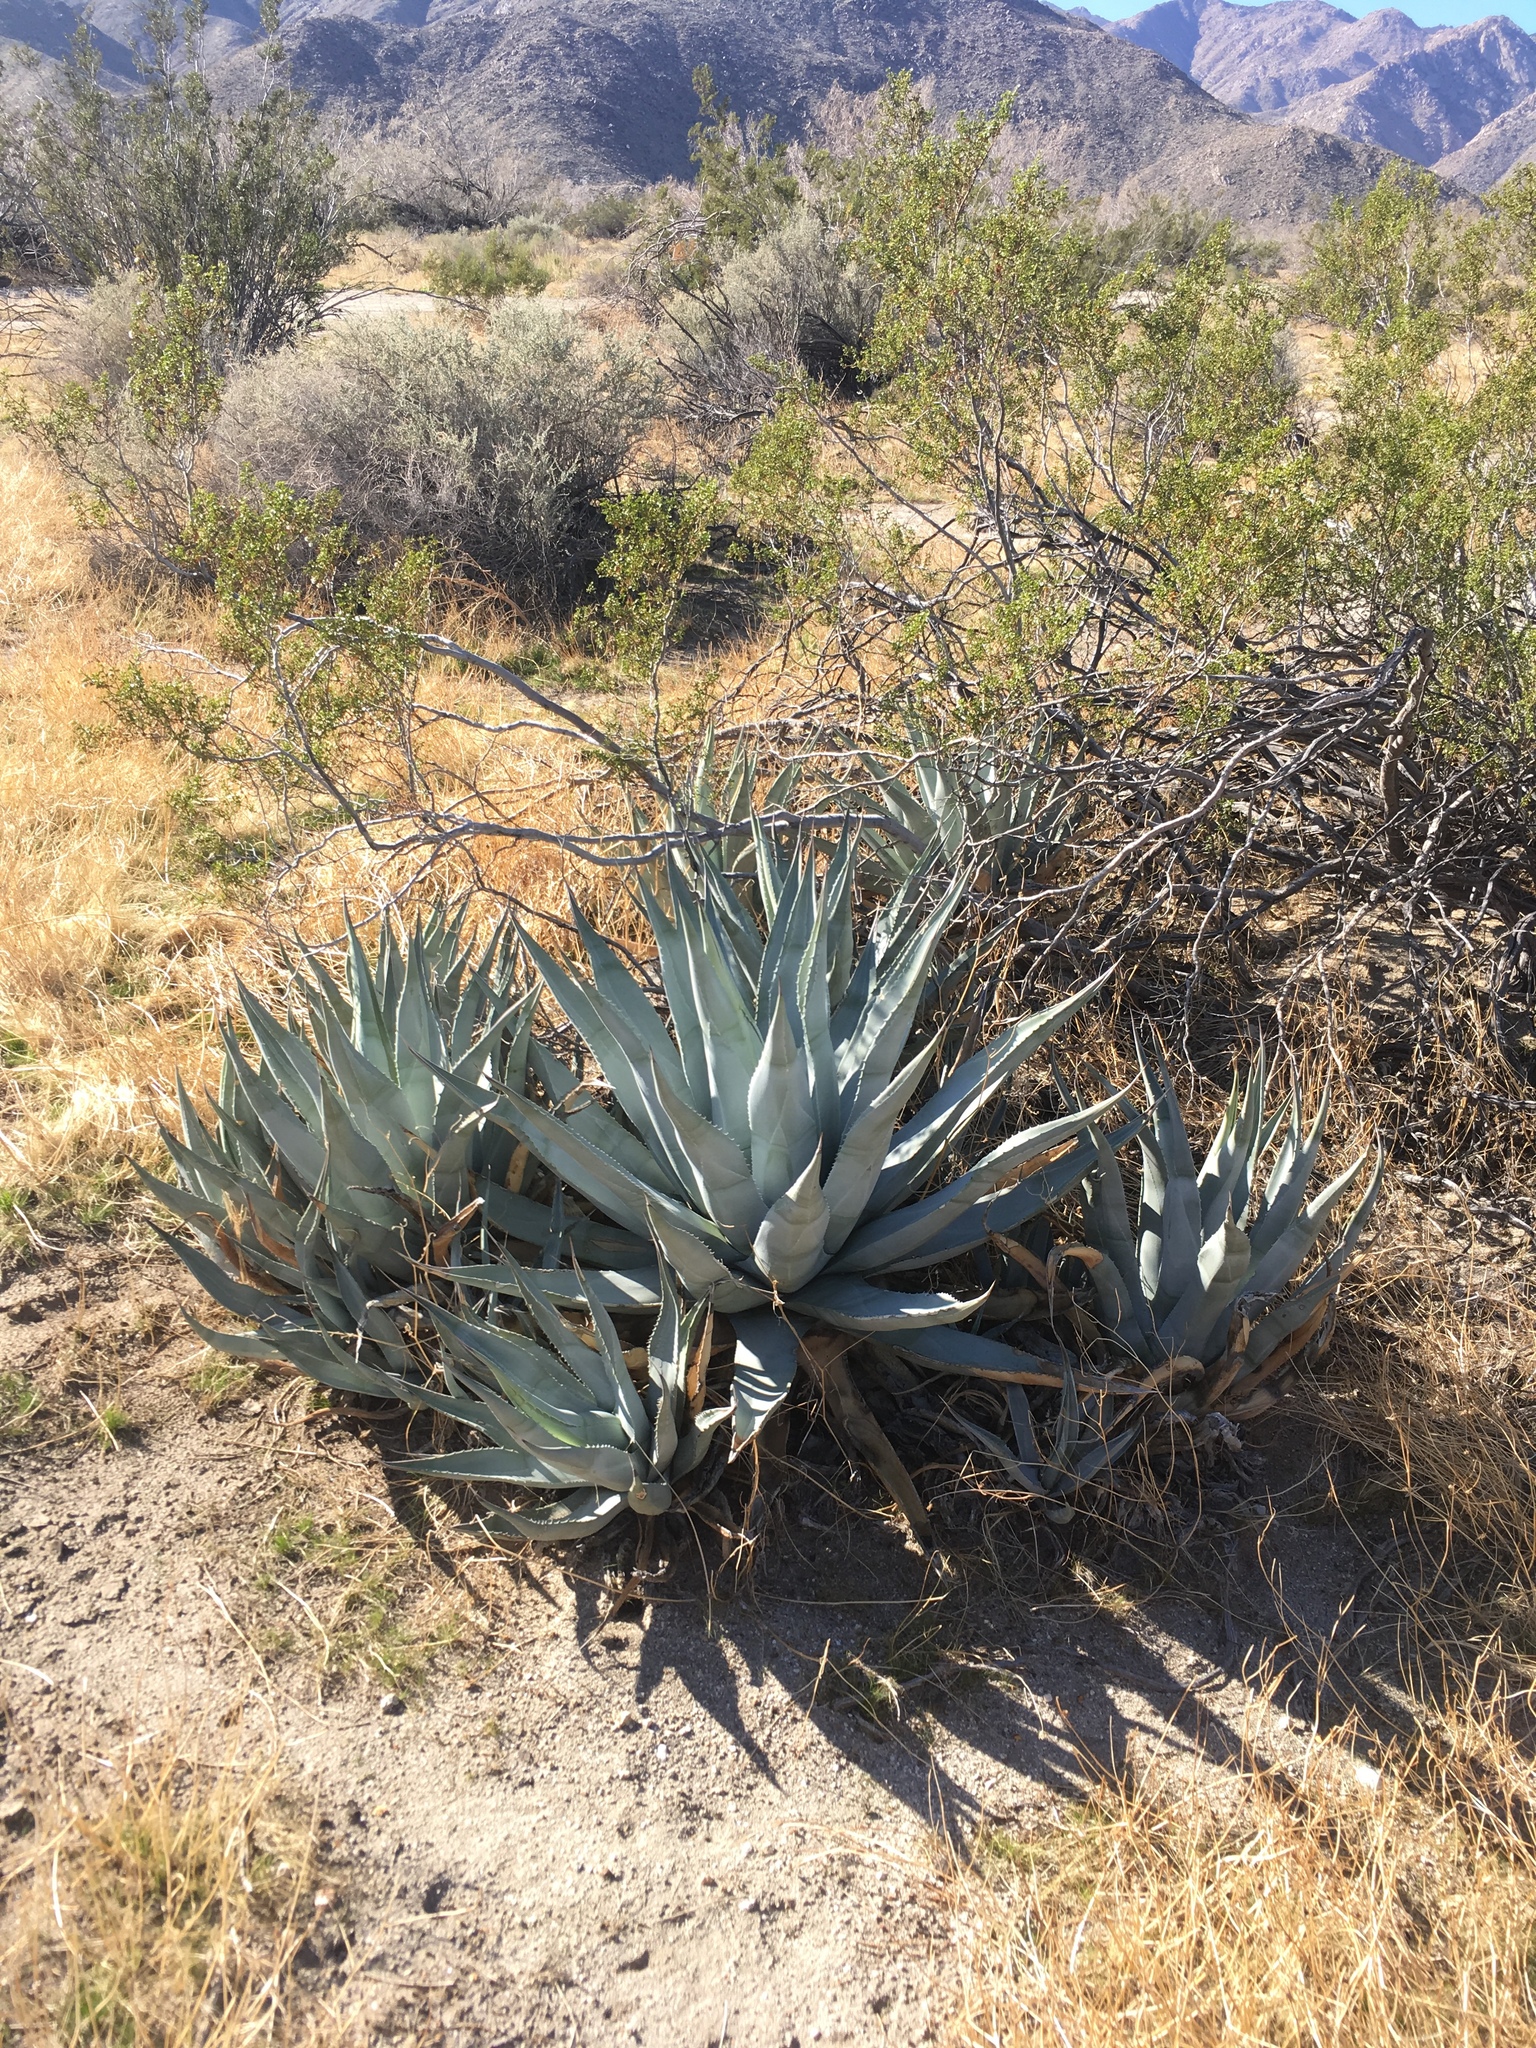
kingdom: Plantae
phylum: Tracheophyta
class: Liliopsida
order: Asparagales
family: Asparagaceae
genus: Agave
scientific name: Agave deserti
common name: Desert agave
